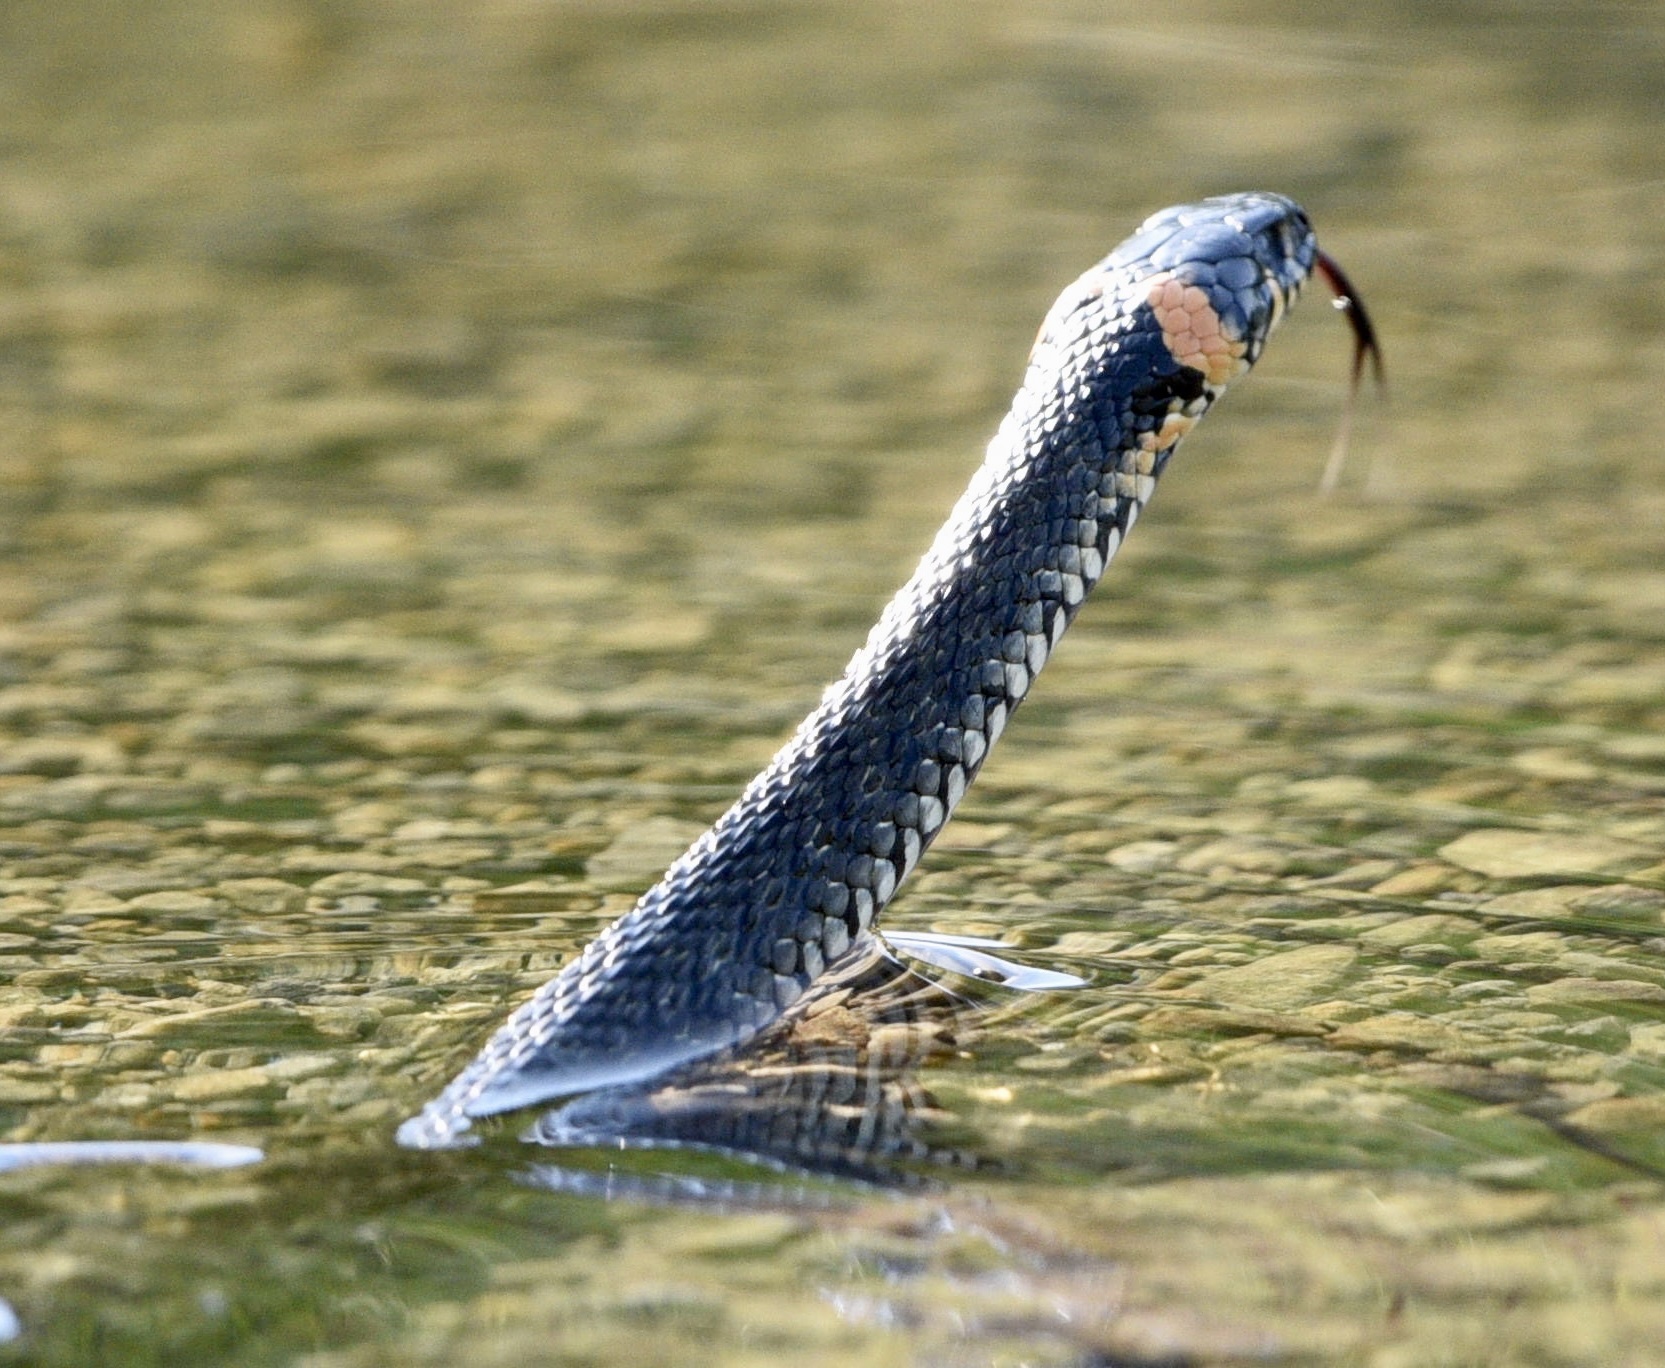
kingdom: Animalia
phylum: Chordata
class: Squamata
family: Colubridae
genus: Natrix
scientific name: Natrix natrix
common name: Grass snake
